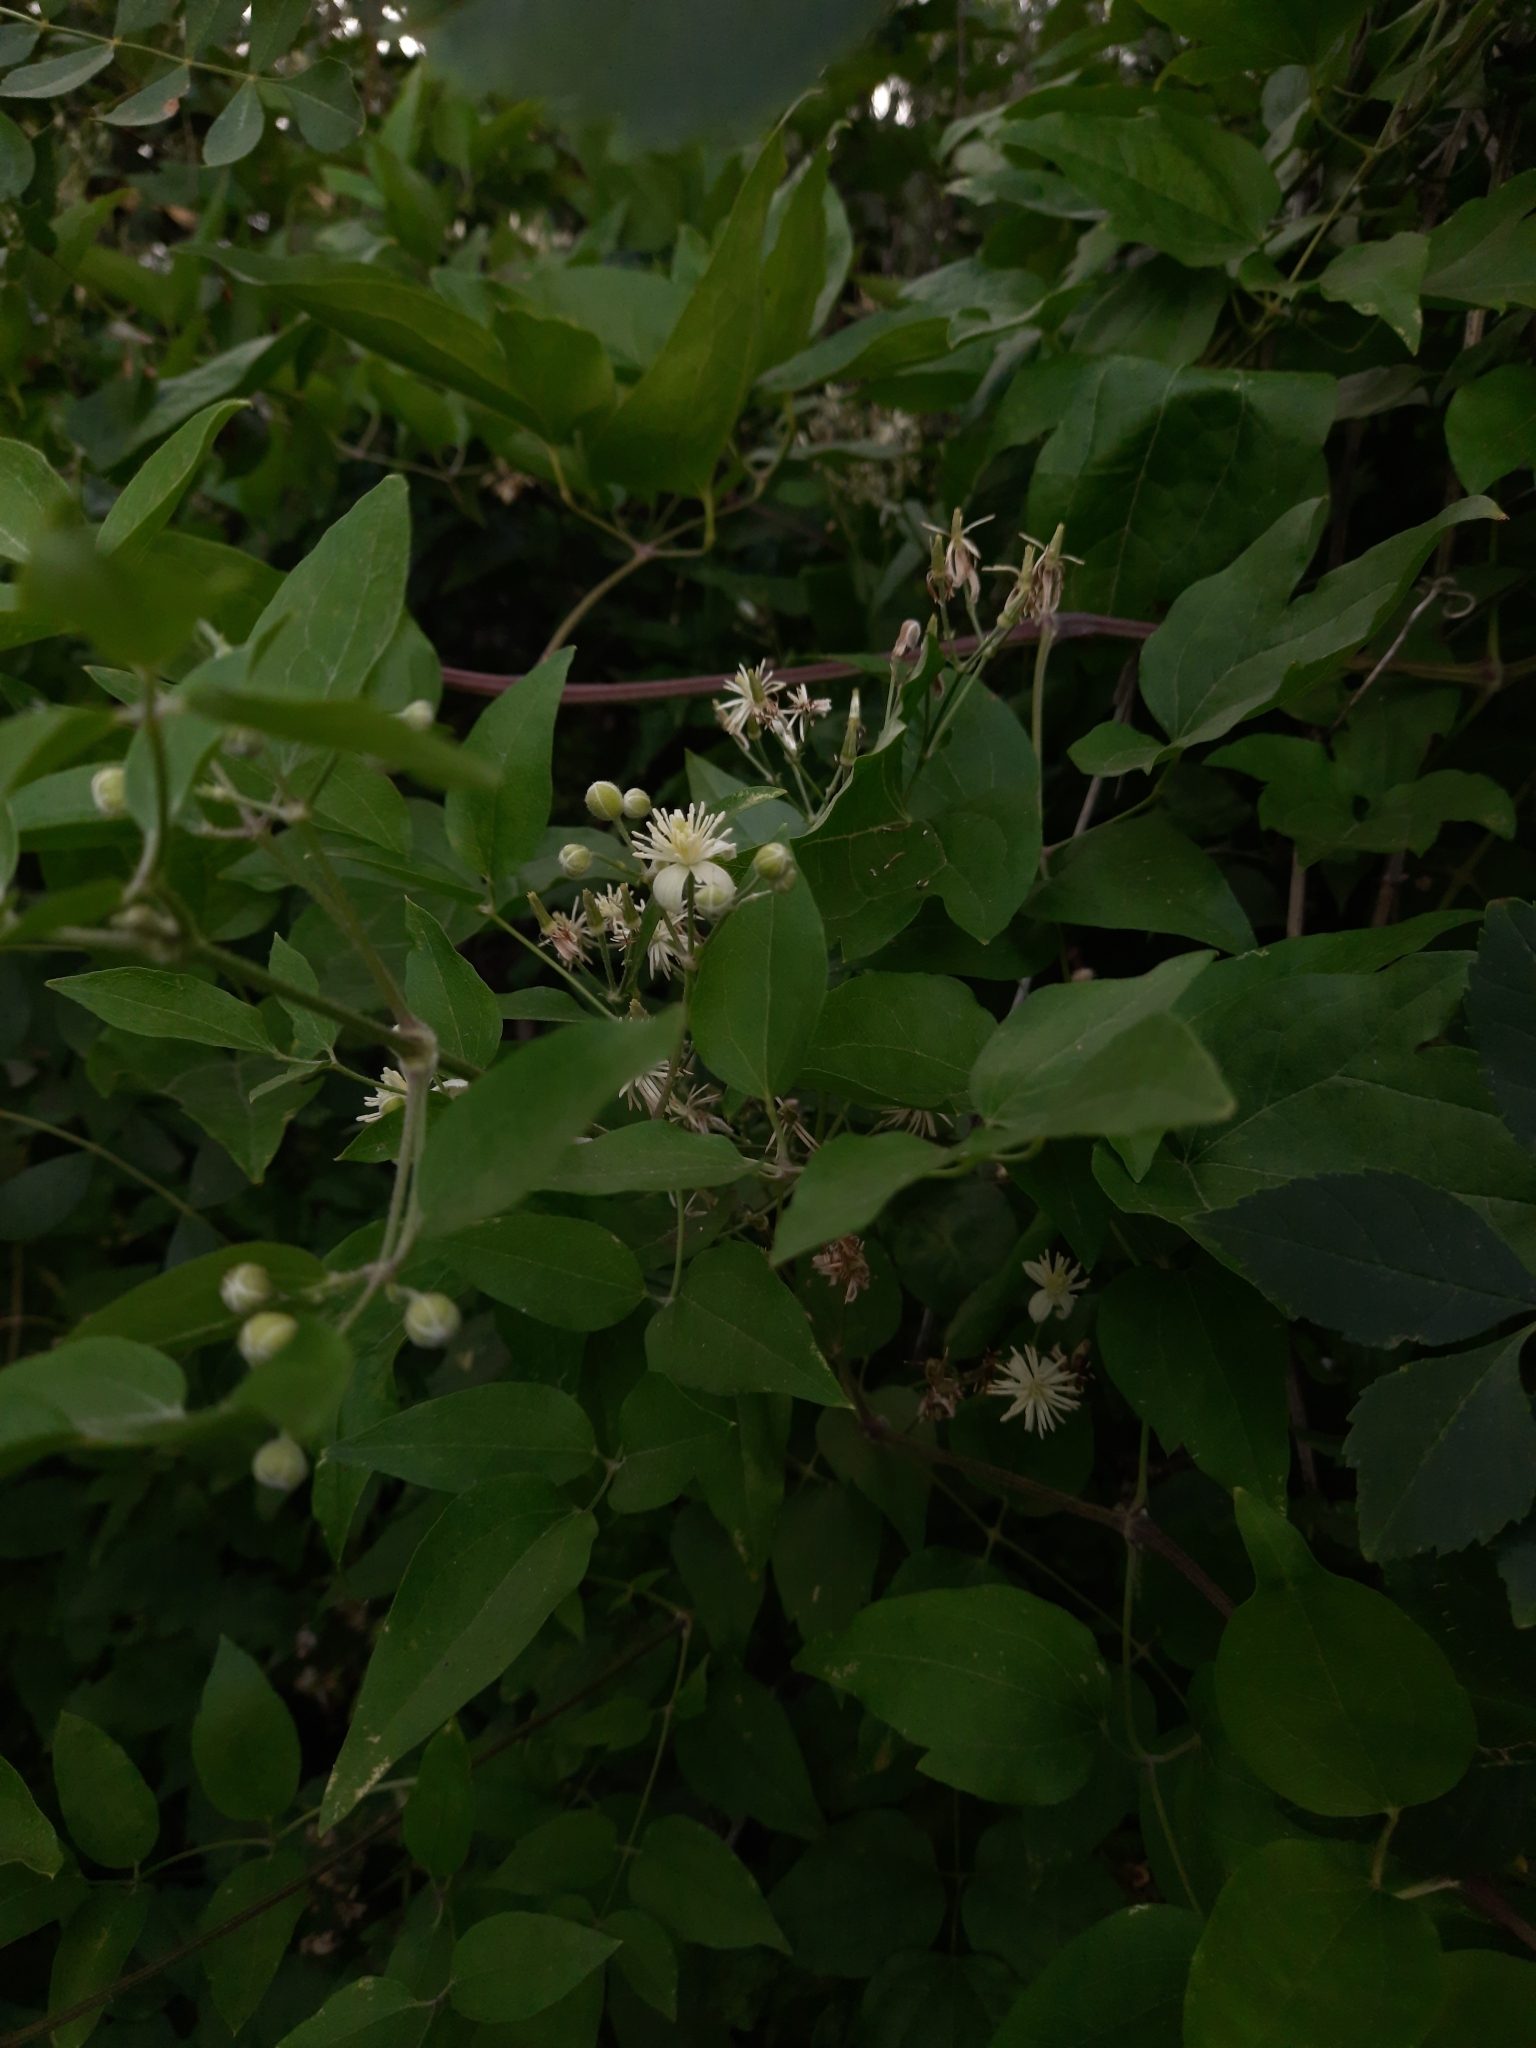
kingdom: Plantae
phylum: Tracheophyta
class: Magnoliopsida
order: Ranunculales
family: Ranunculaceae
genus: Clematis
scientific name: Clematis vitalba
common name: Evergreen clematis
